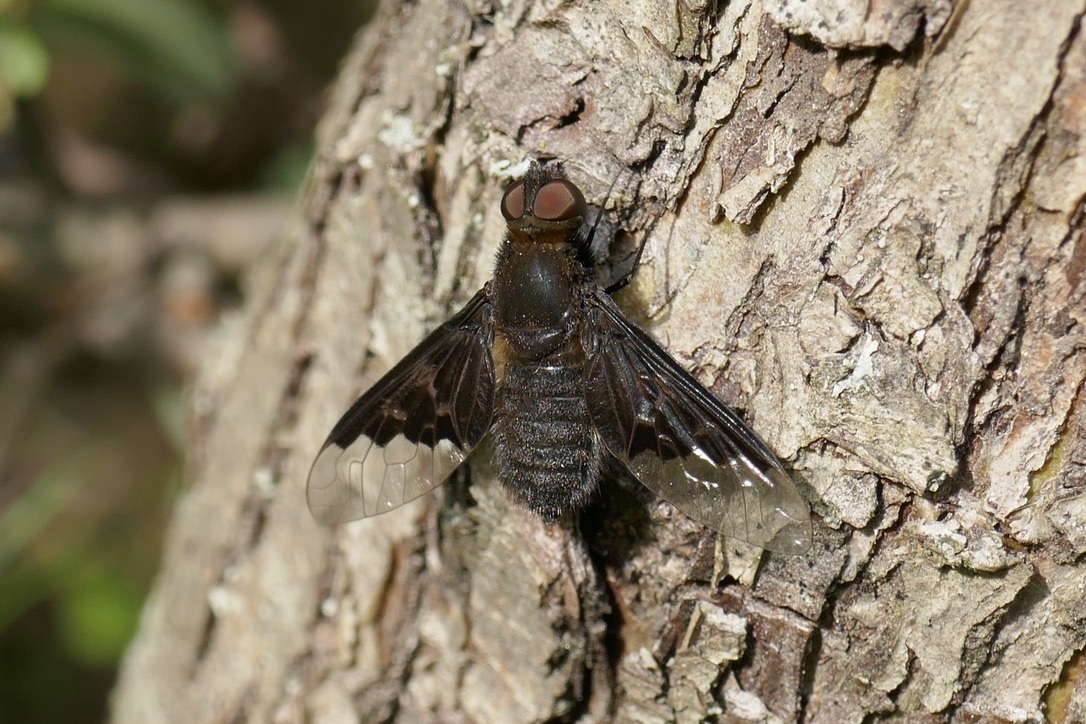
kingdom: Animalia
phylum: Arthropoda
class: Insecta
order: Diptera
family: Bombyliidae
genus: Hemipenthes
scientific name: Hemipenthes morio
